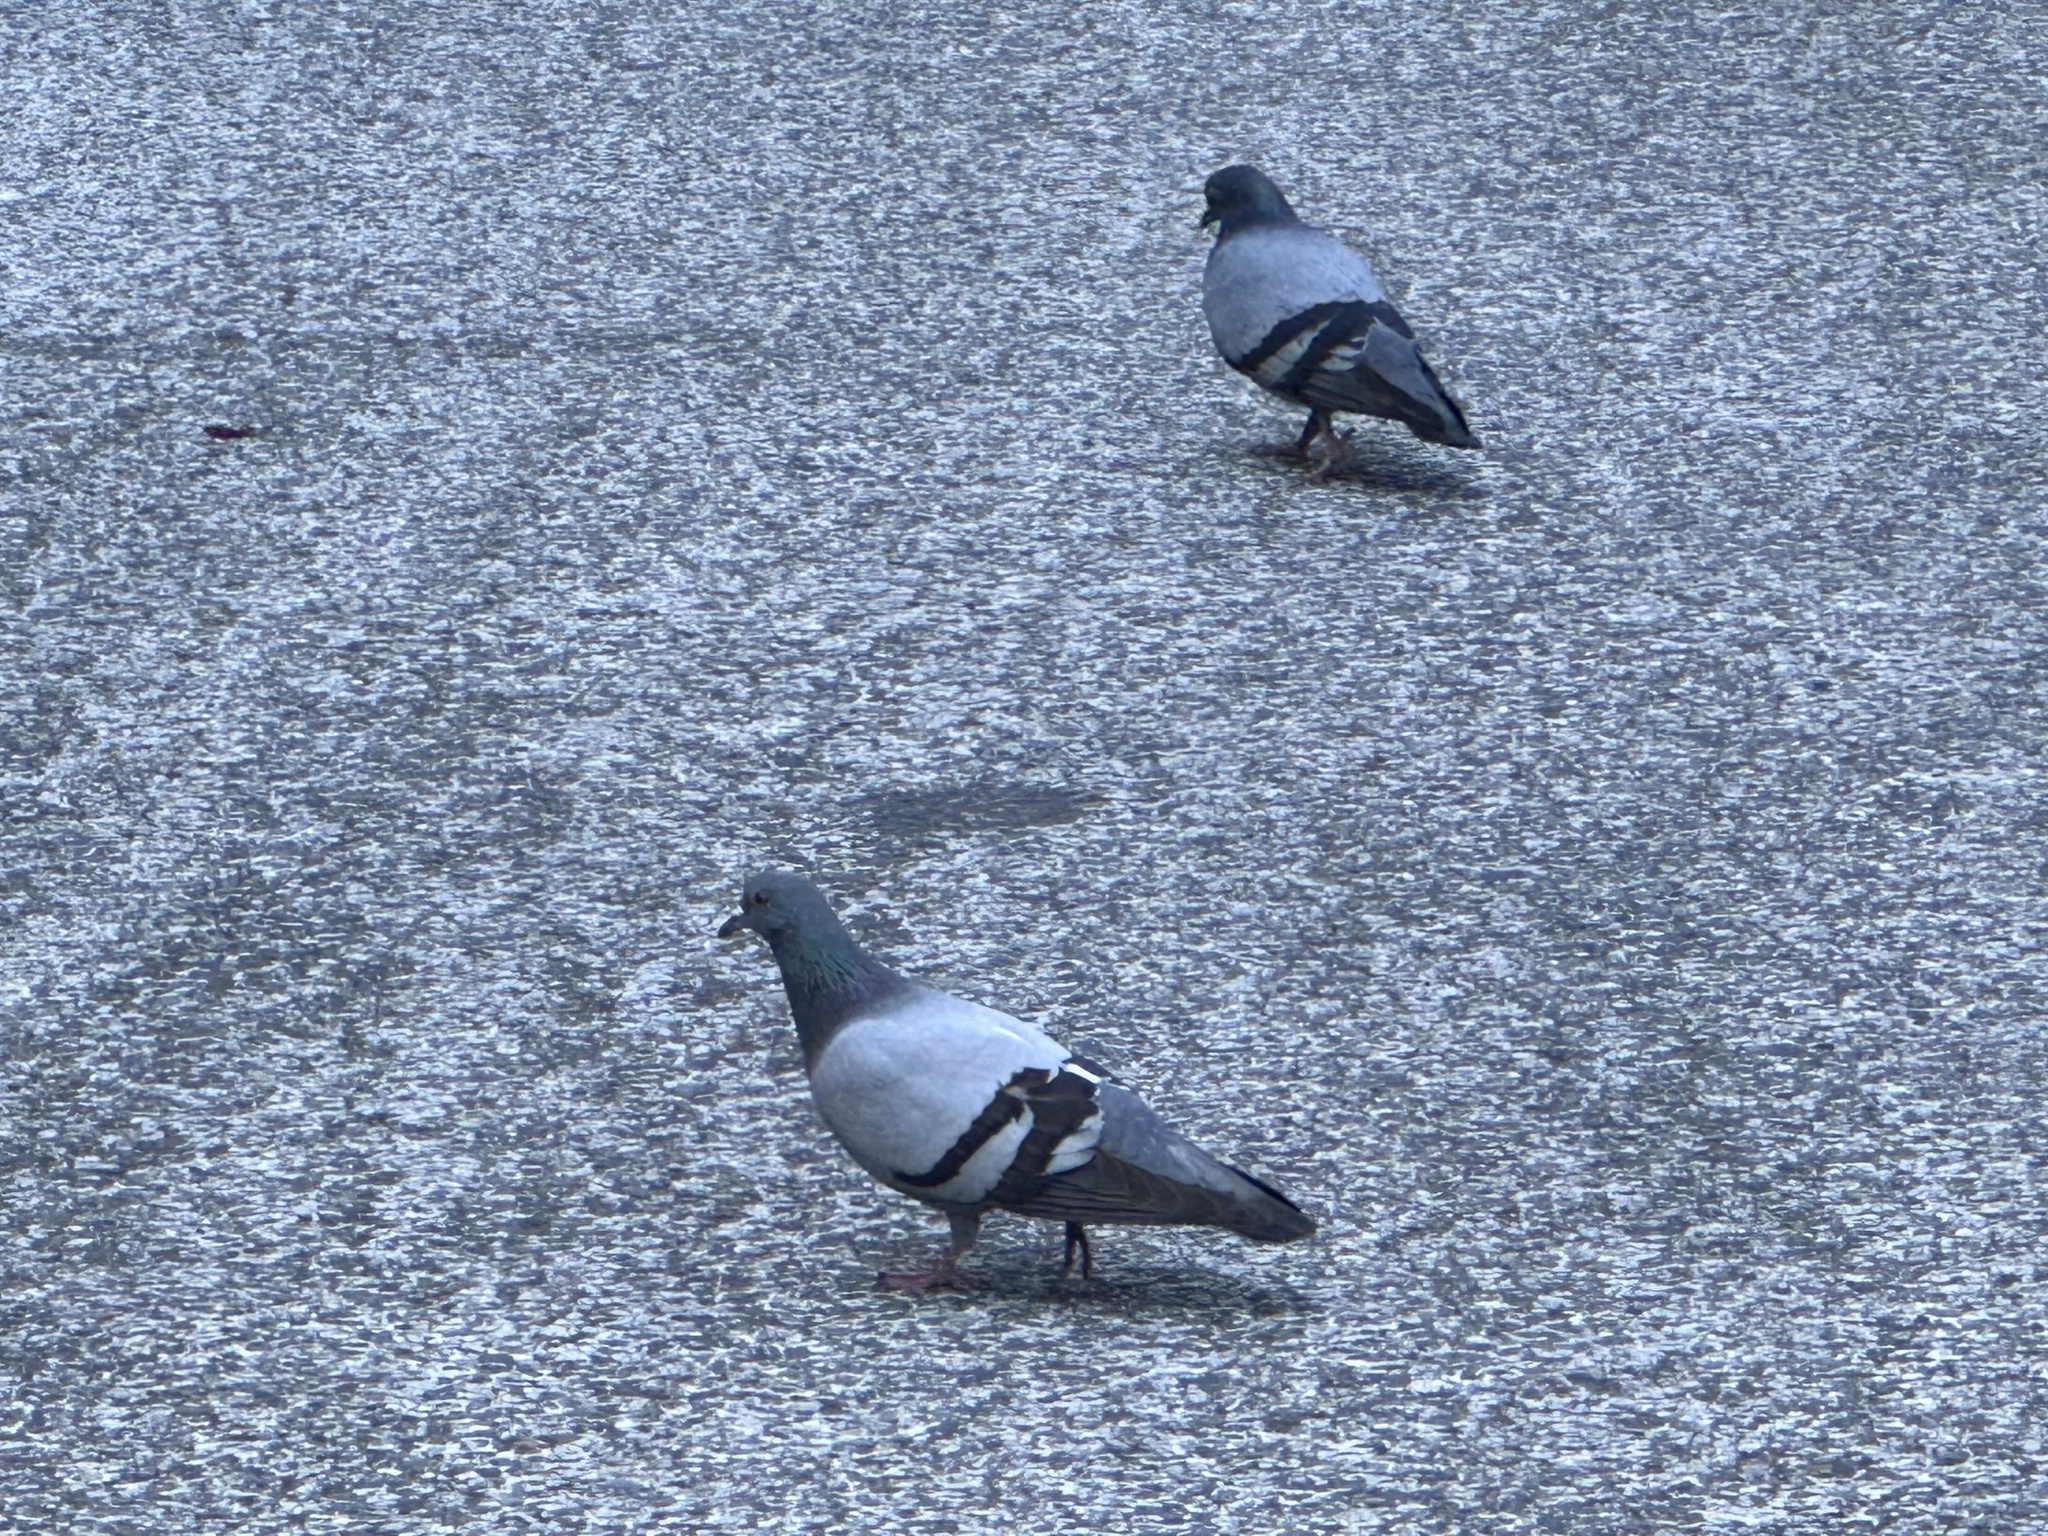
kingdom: Animalia
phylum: Chordata
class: Aves
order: Columbiformes
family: Columbidae
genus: Columba
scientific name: Columba livia
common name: Rock pigeon
